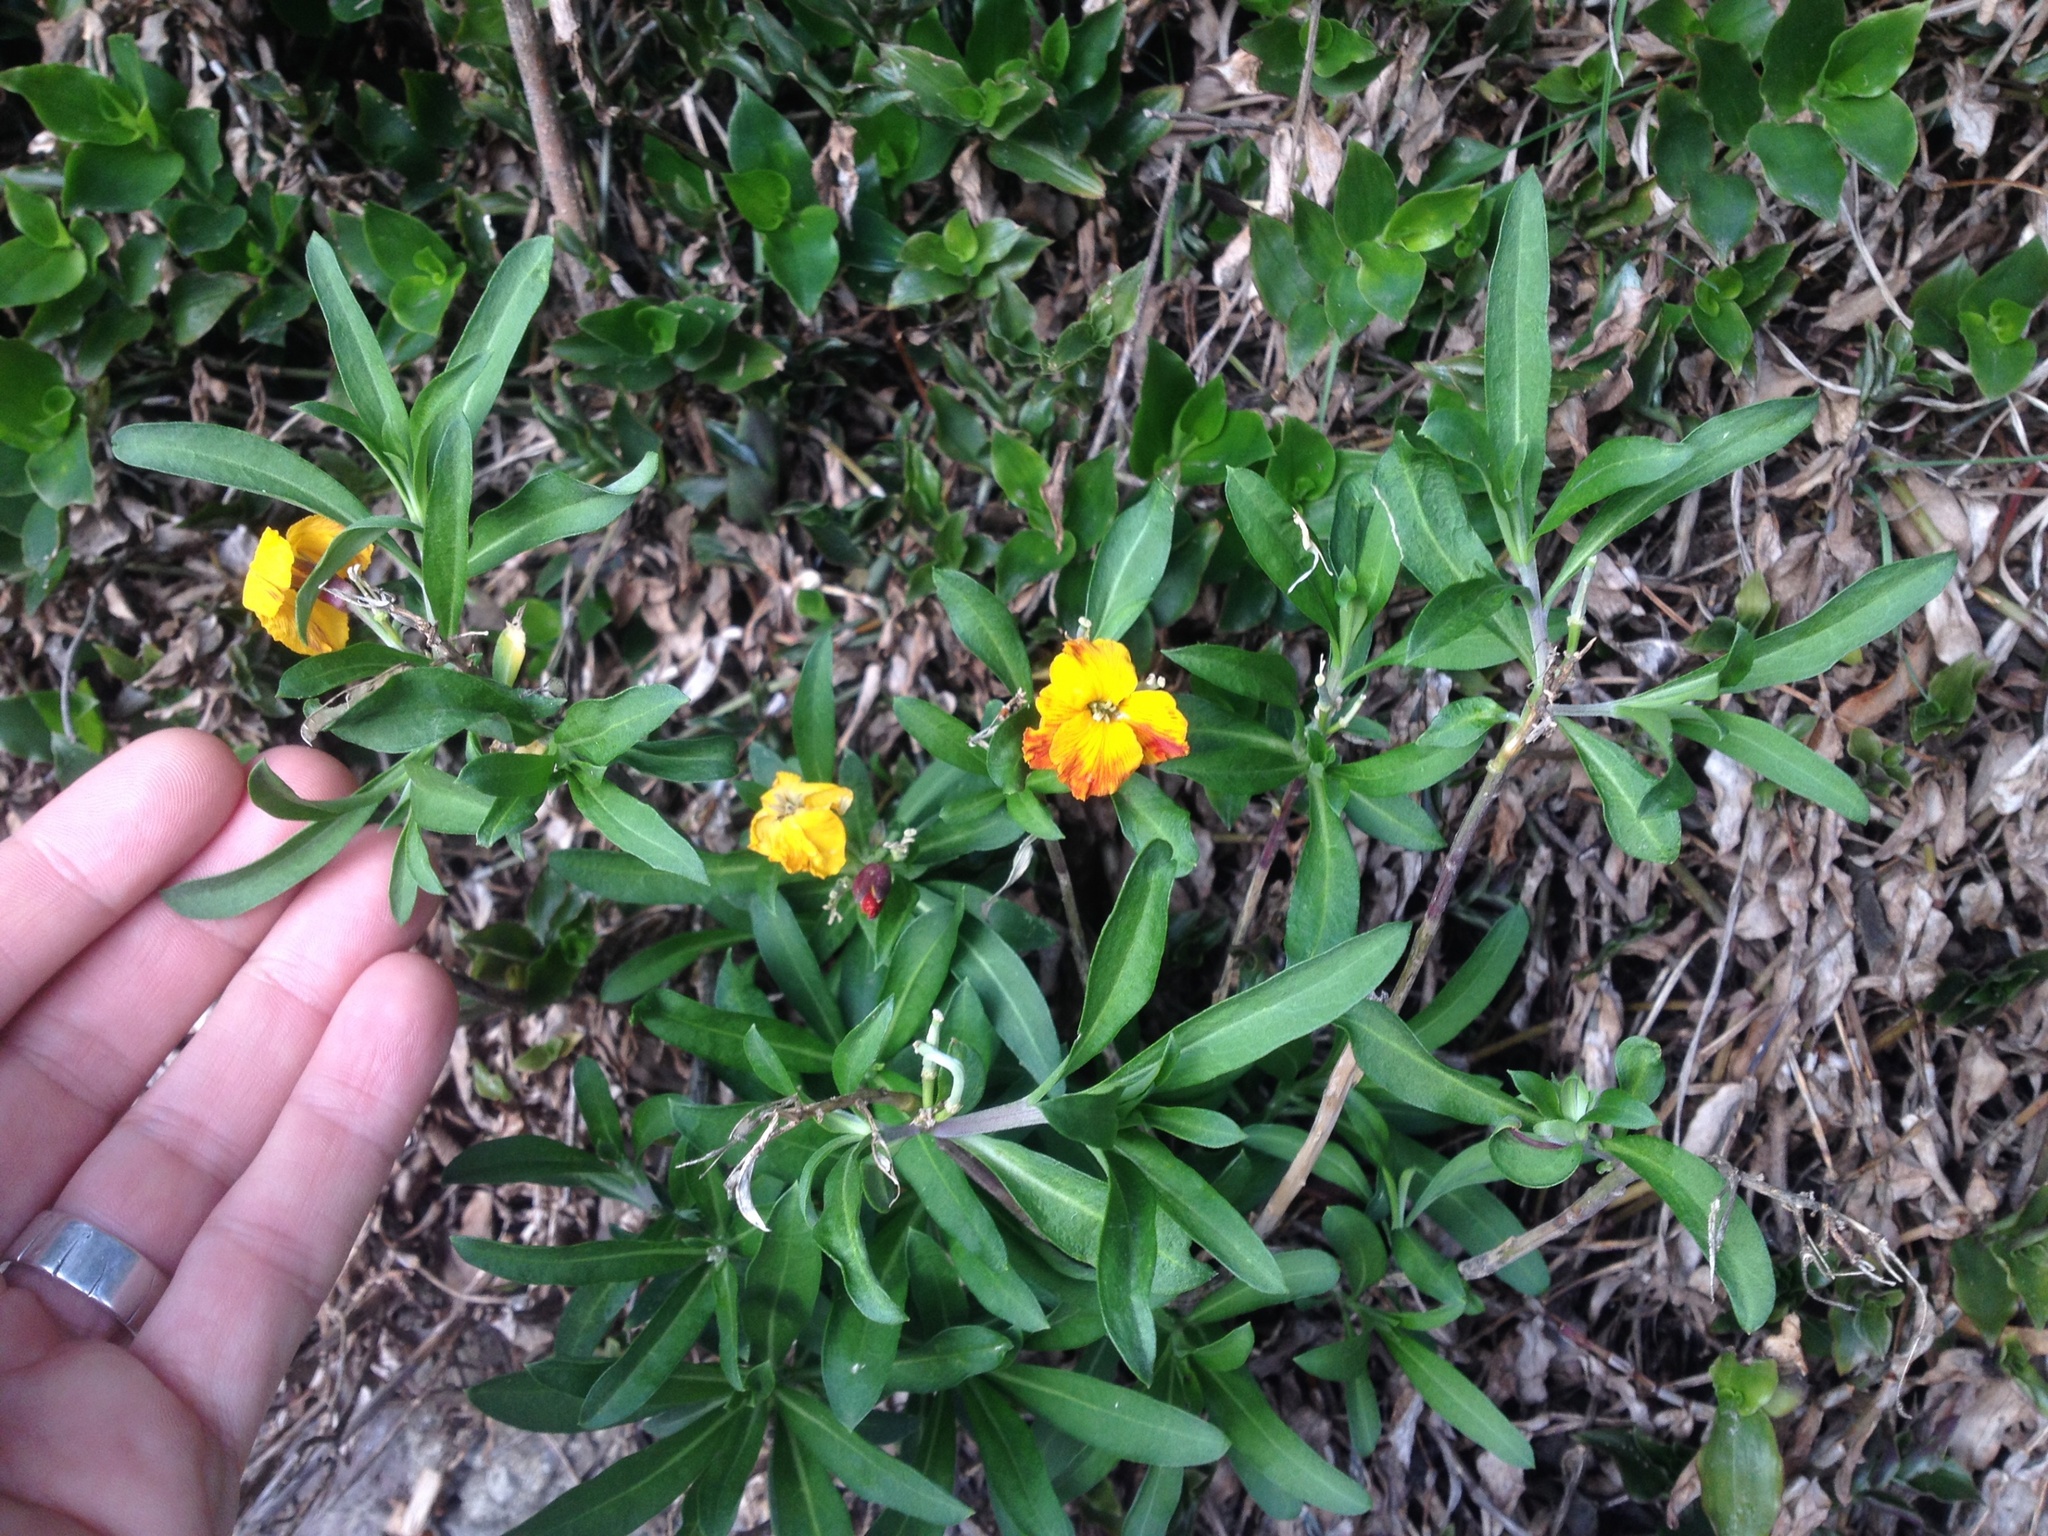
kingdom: Plantae
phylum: Tracheophyta
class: Magnoliopsida
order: Brassicales
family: Brassicaceae
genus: Erysimum
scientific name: Erysimum cheiri
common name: Wallflower
